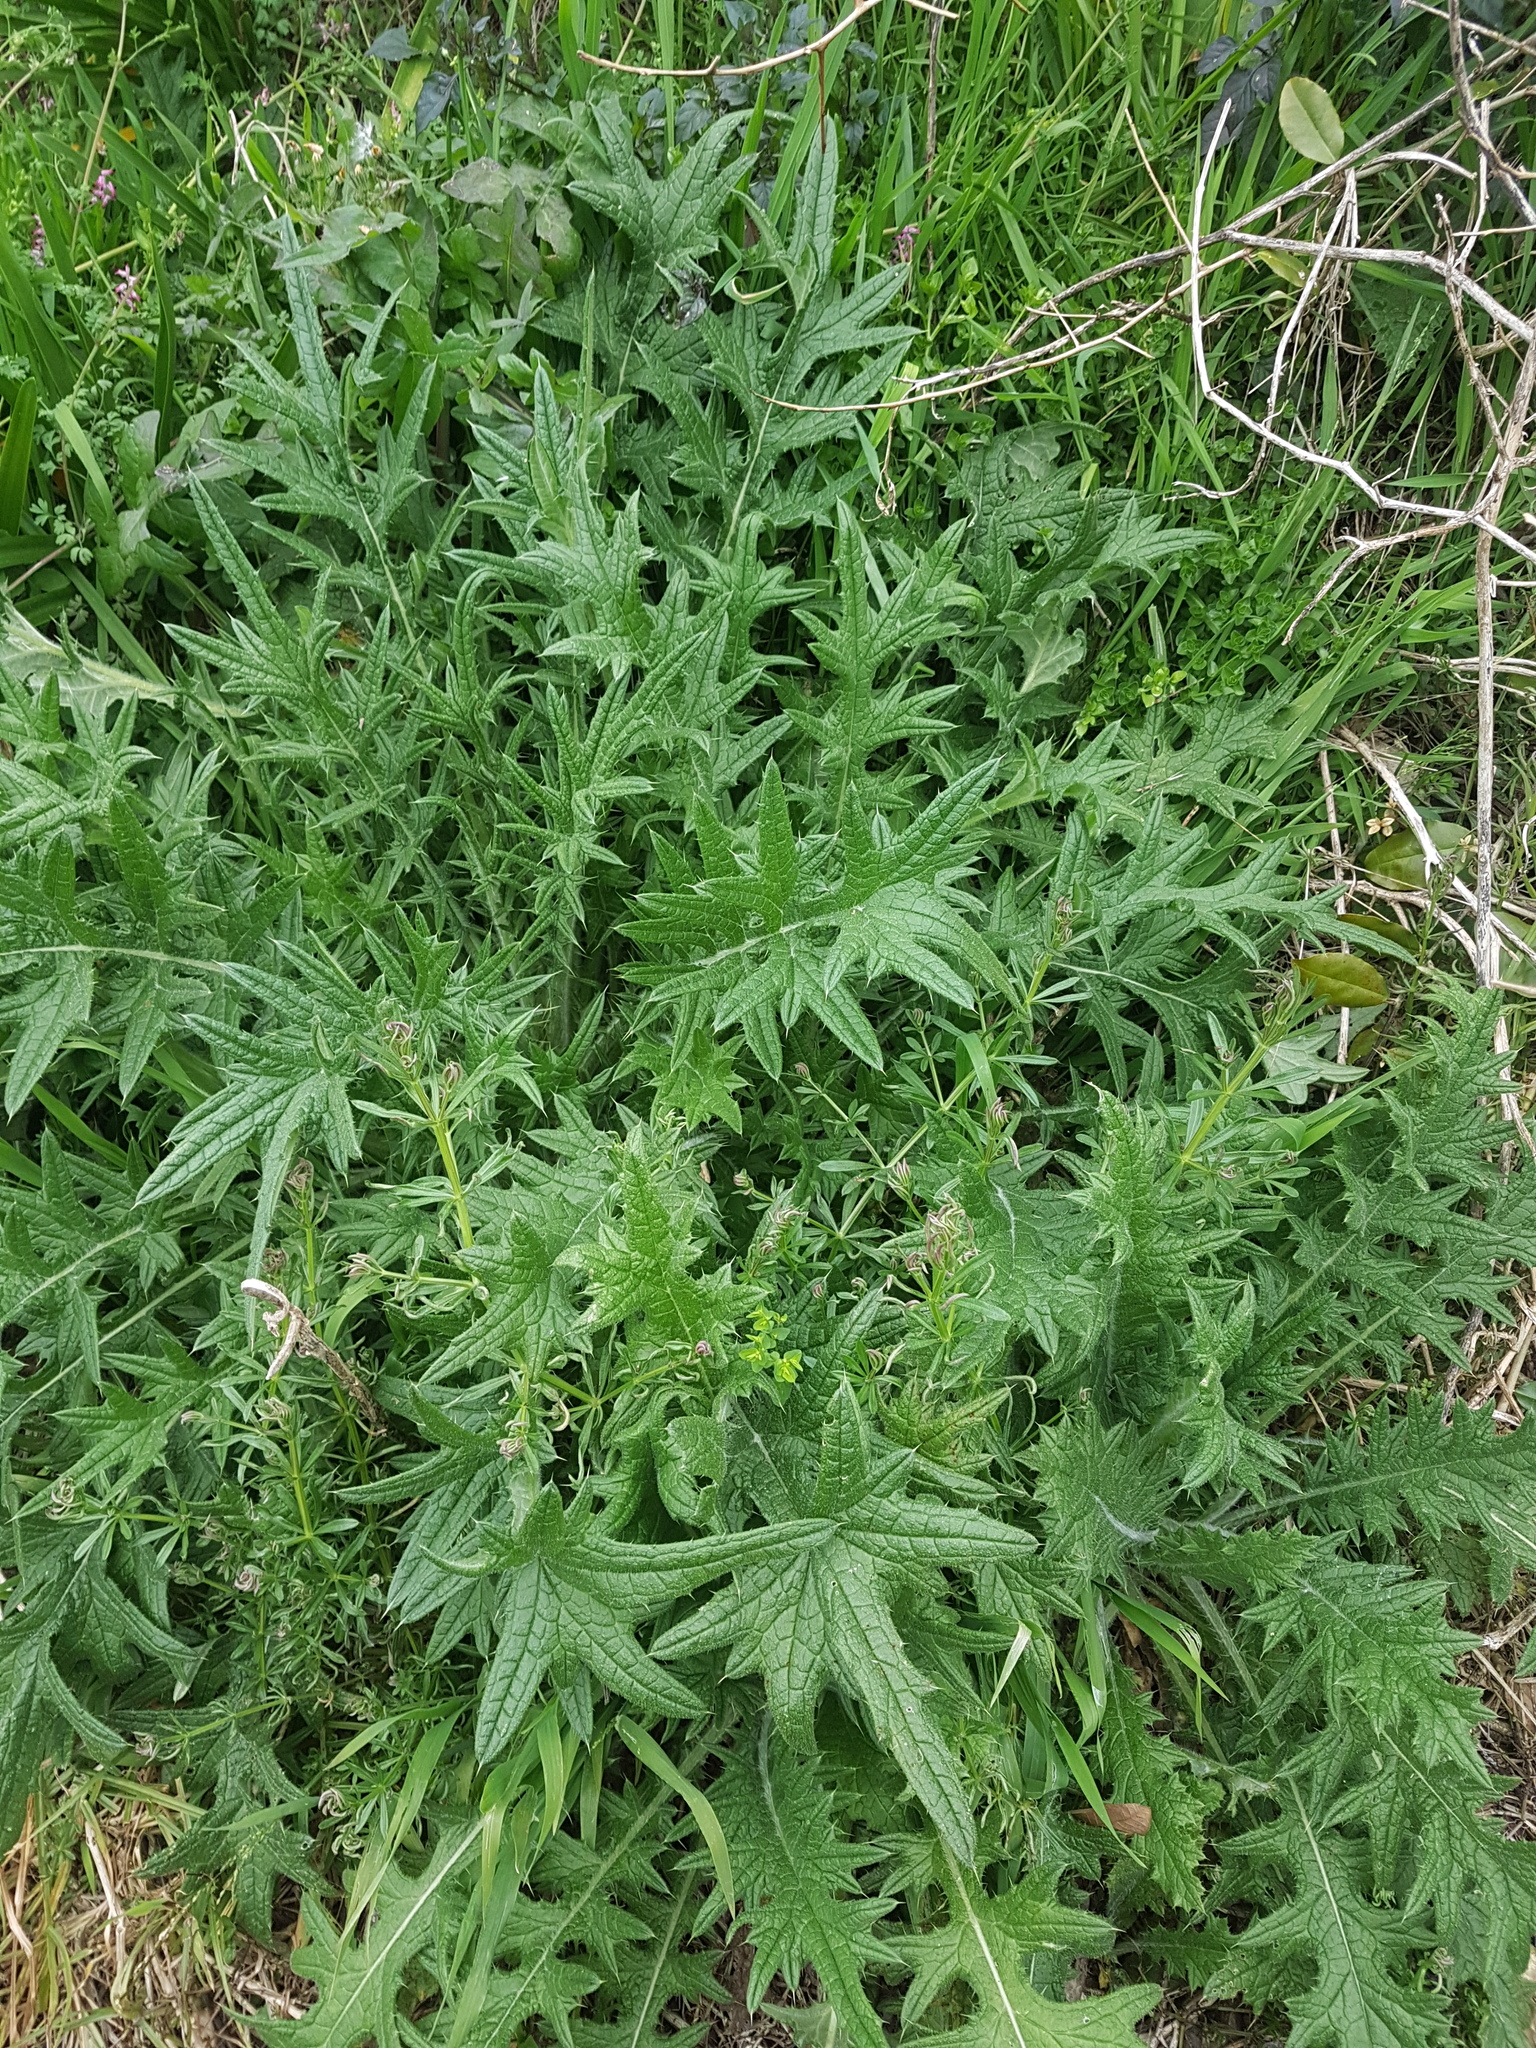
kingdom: Plantae
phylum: Tracheophyta
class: Magnoliopsida
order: Asterales
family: Asteraceae
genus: Cirsium
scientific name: Cirsium vulgare
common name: Bull thistle
